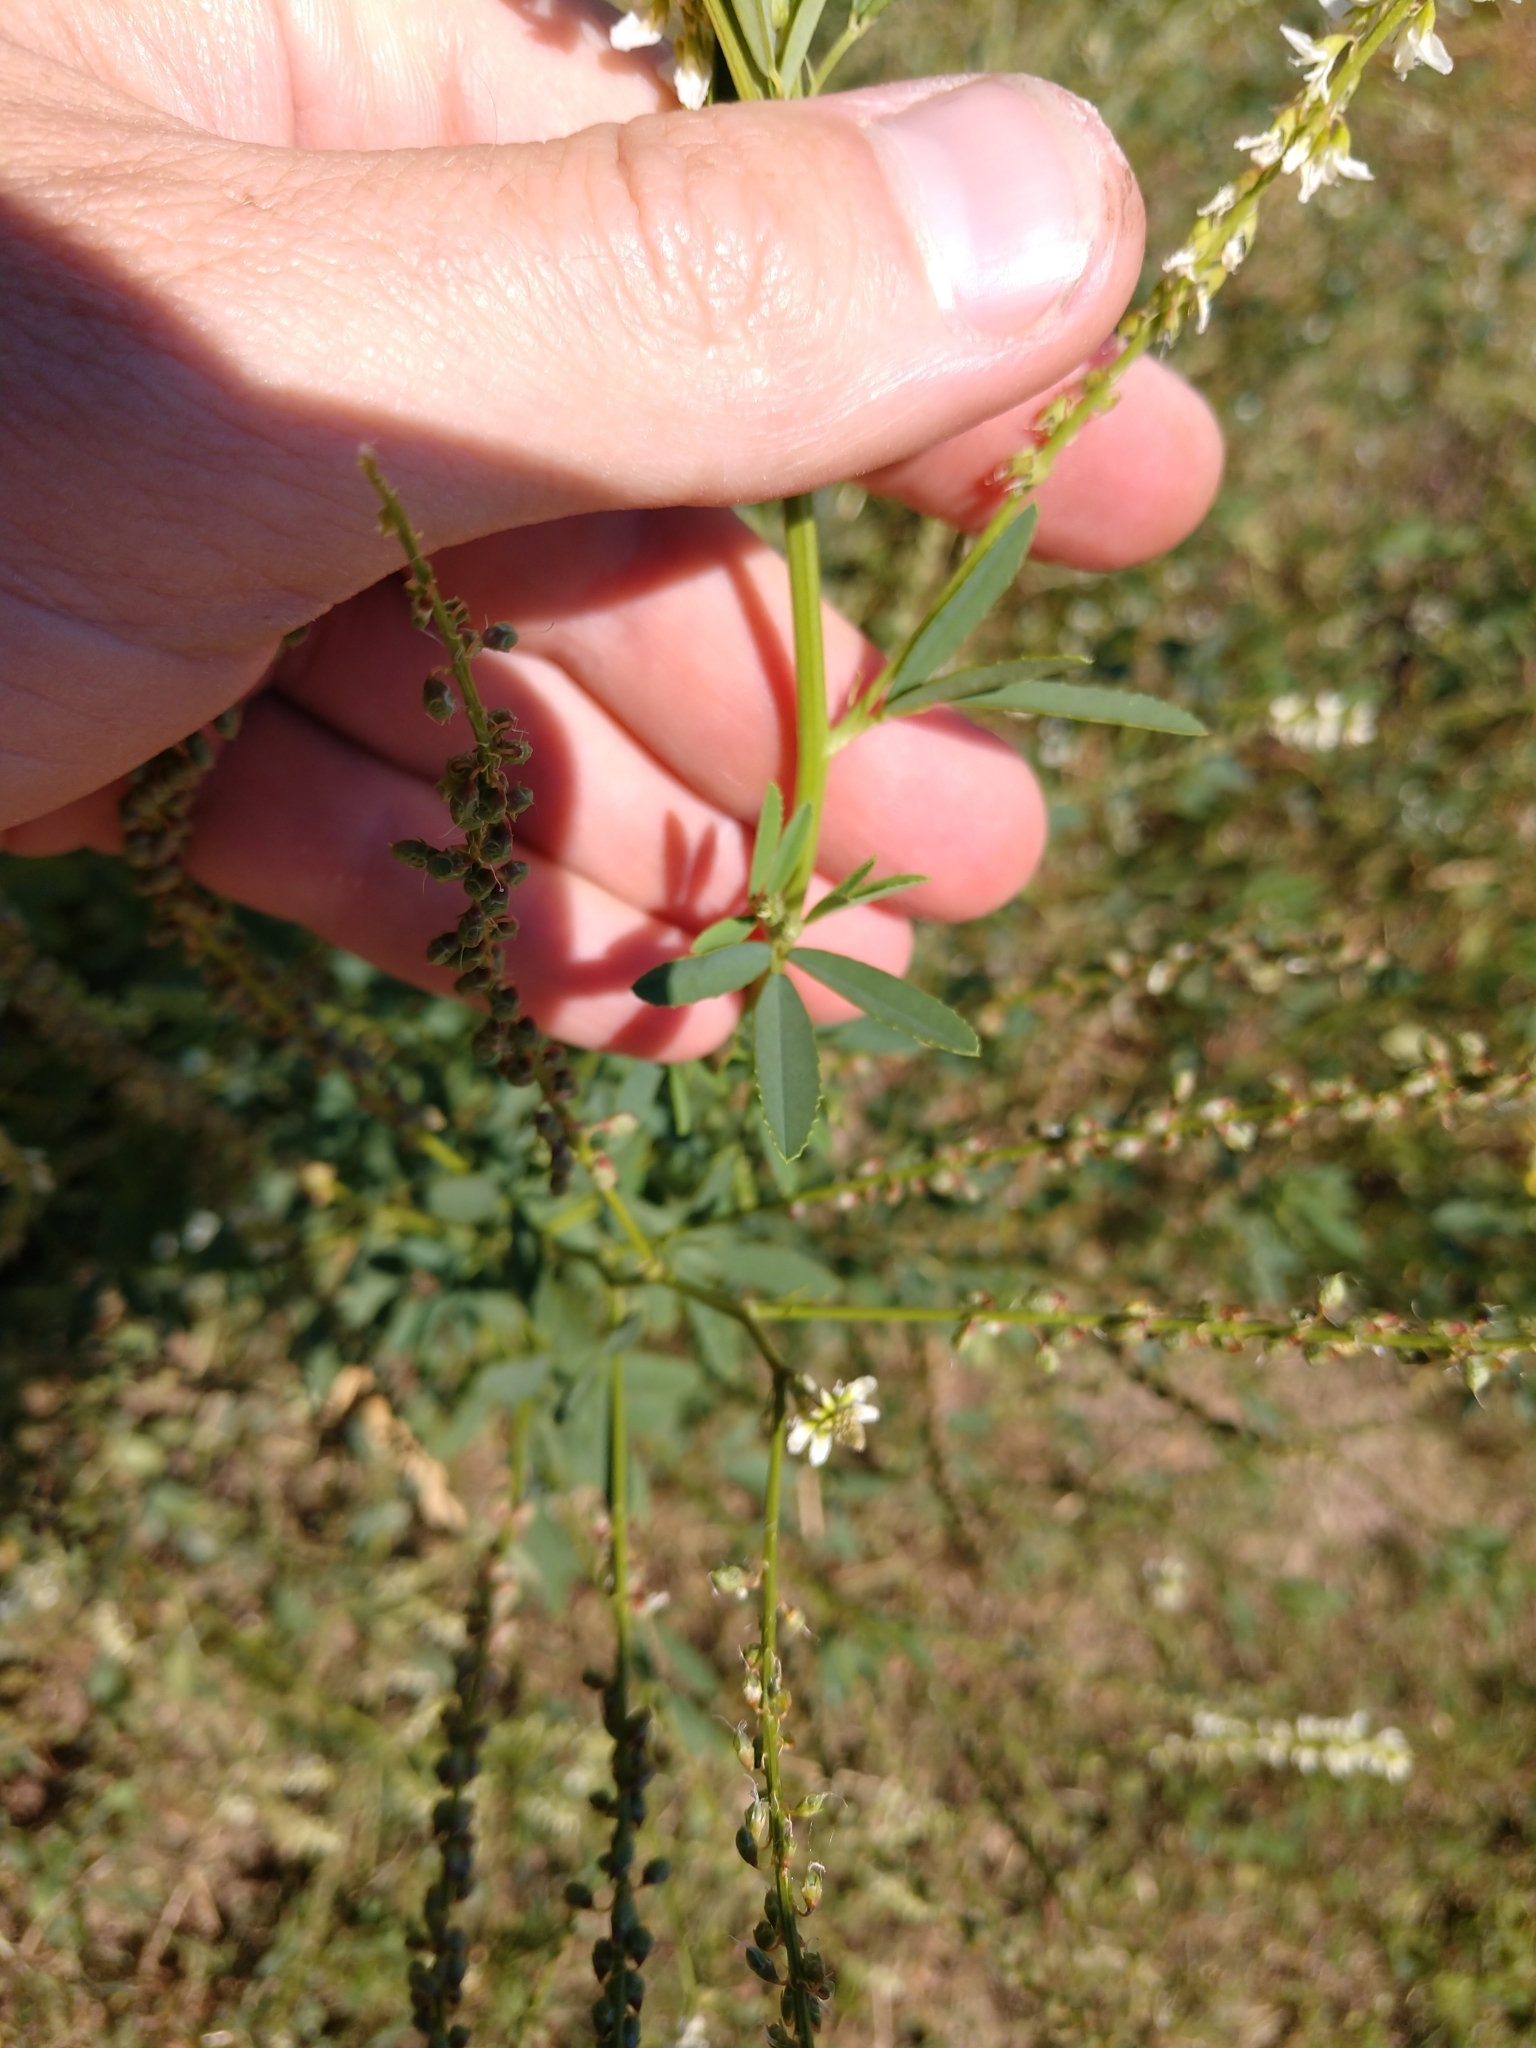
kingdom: Plantae
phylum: Tracheophyta
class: Magnoliopsida
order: Fabales
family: Fabaceae
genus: Melilotus
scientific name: Melilotus albus
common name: White melilot
